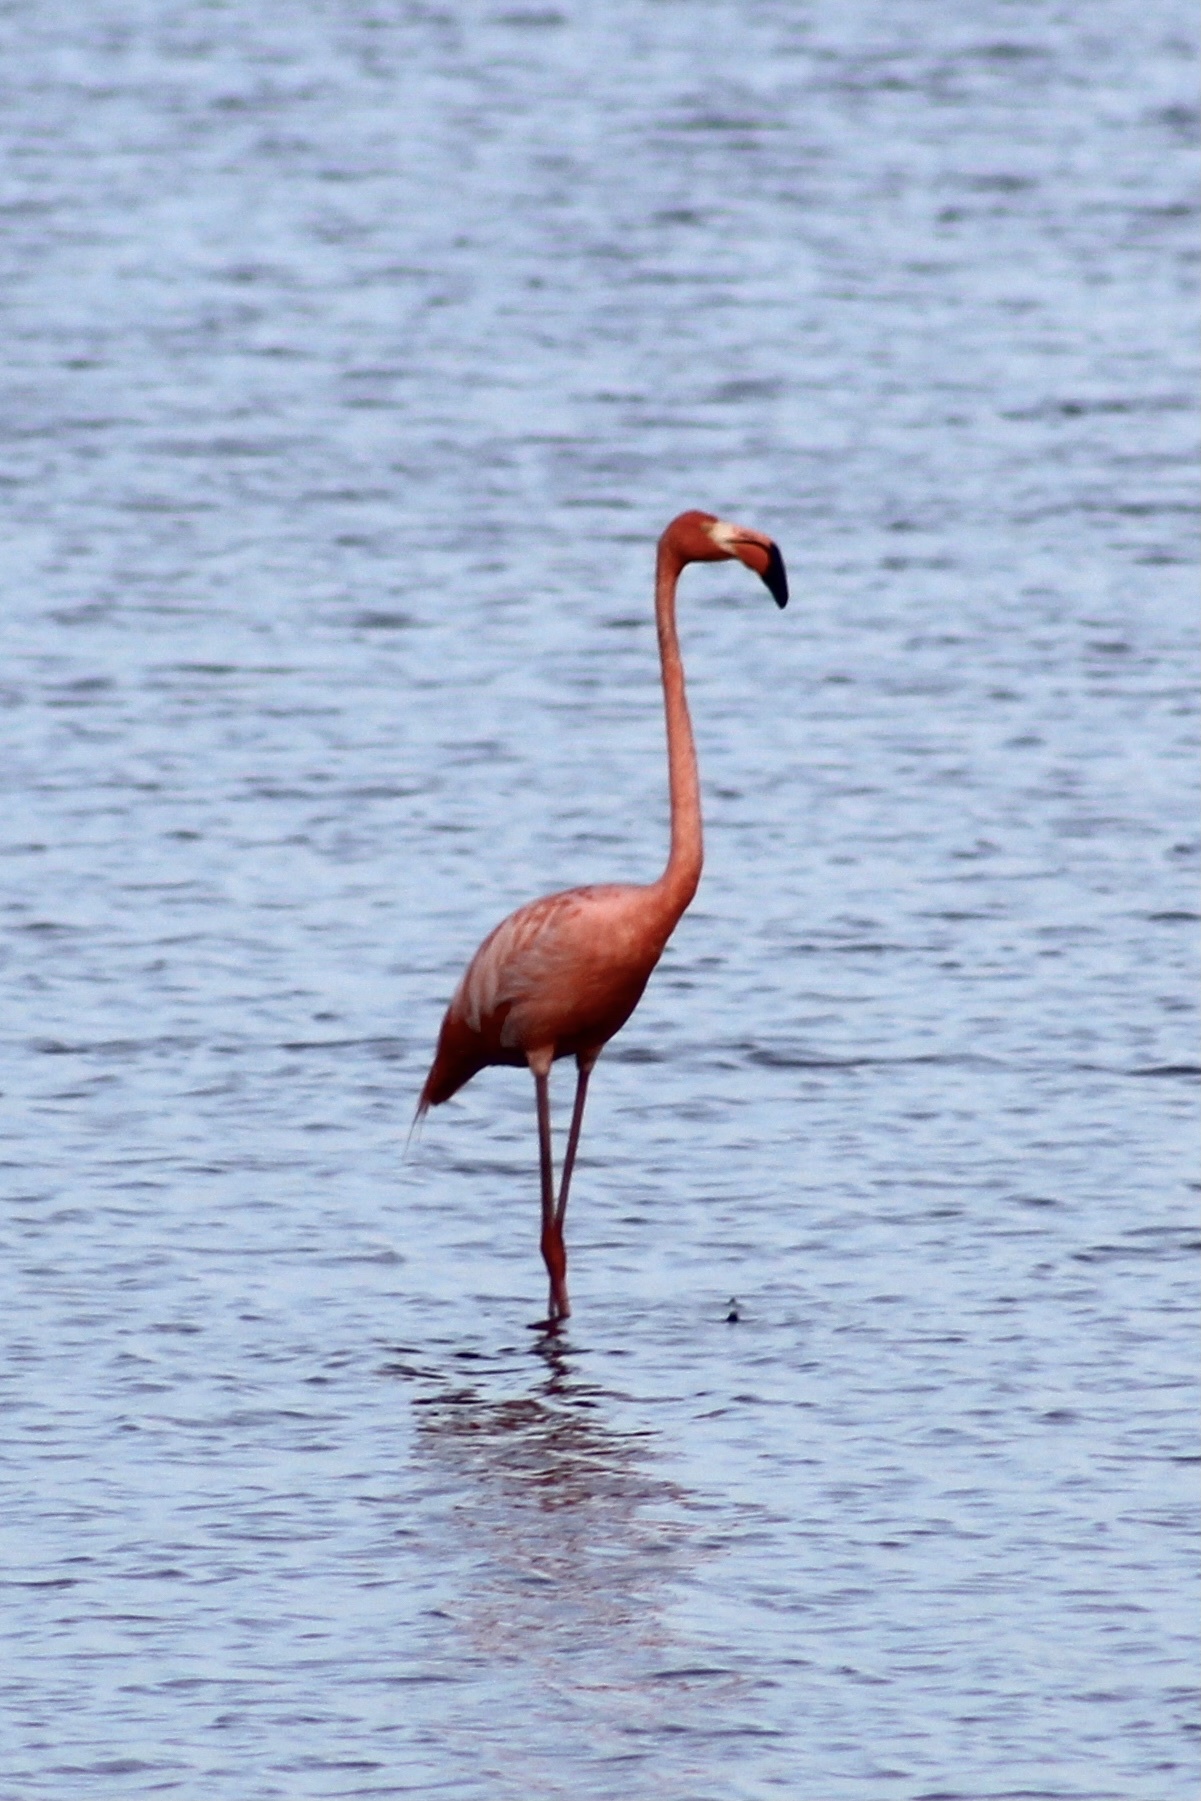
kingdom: Animalia
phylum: Chordata
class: Aves
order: Phoenicopteriformes
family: Phoenicopteridae
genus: Phoenicopterus
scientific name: Phoenicopterus ruber
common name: American flamingo
